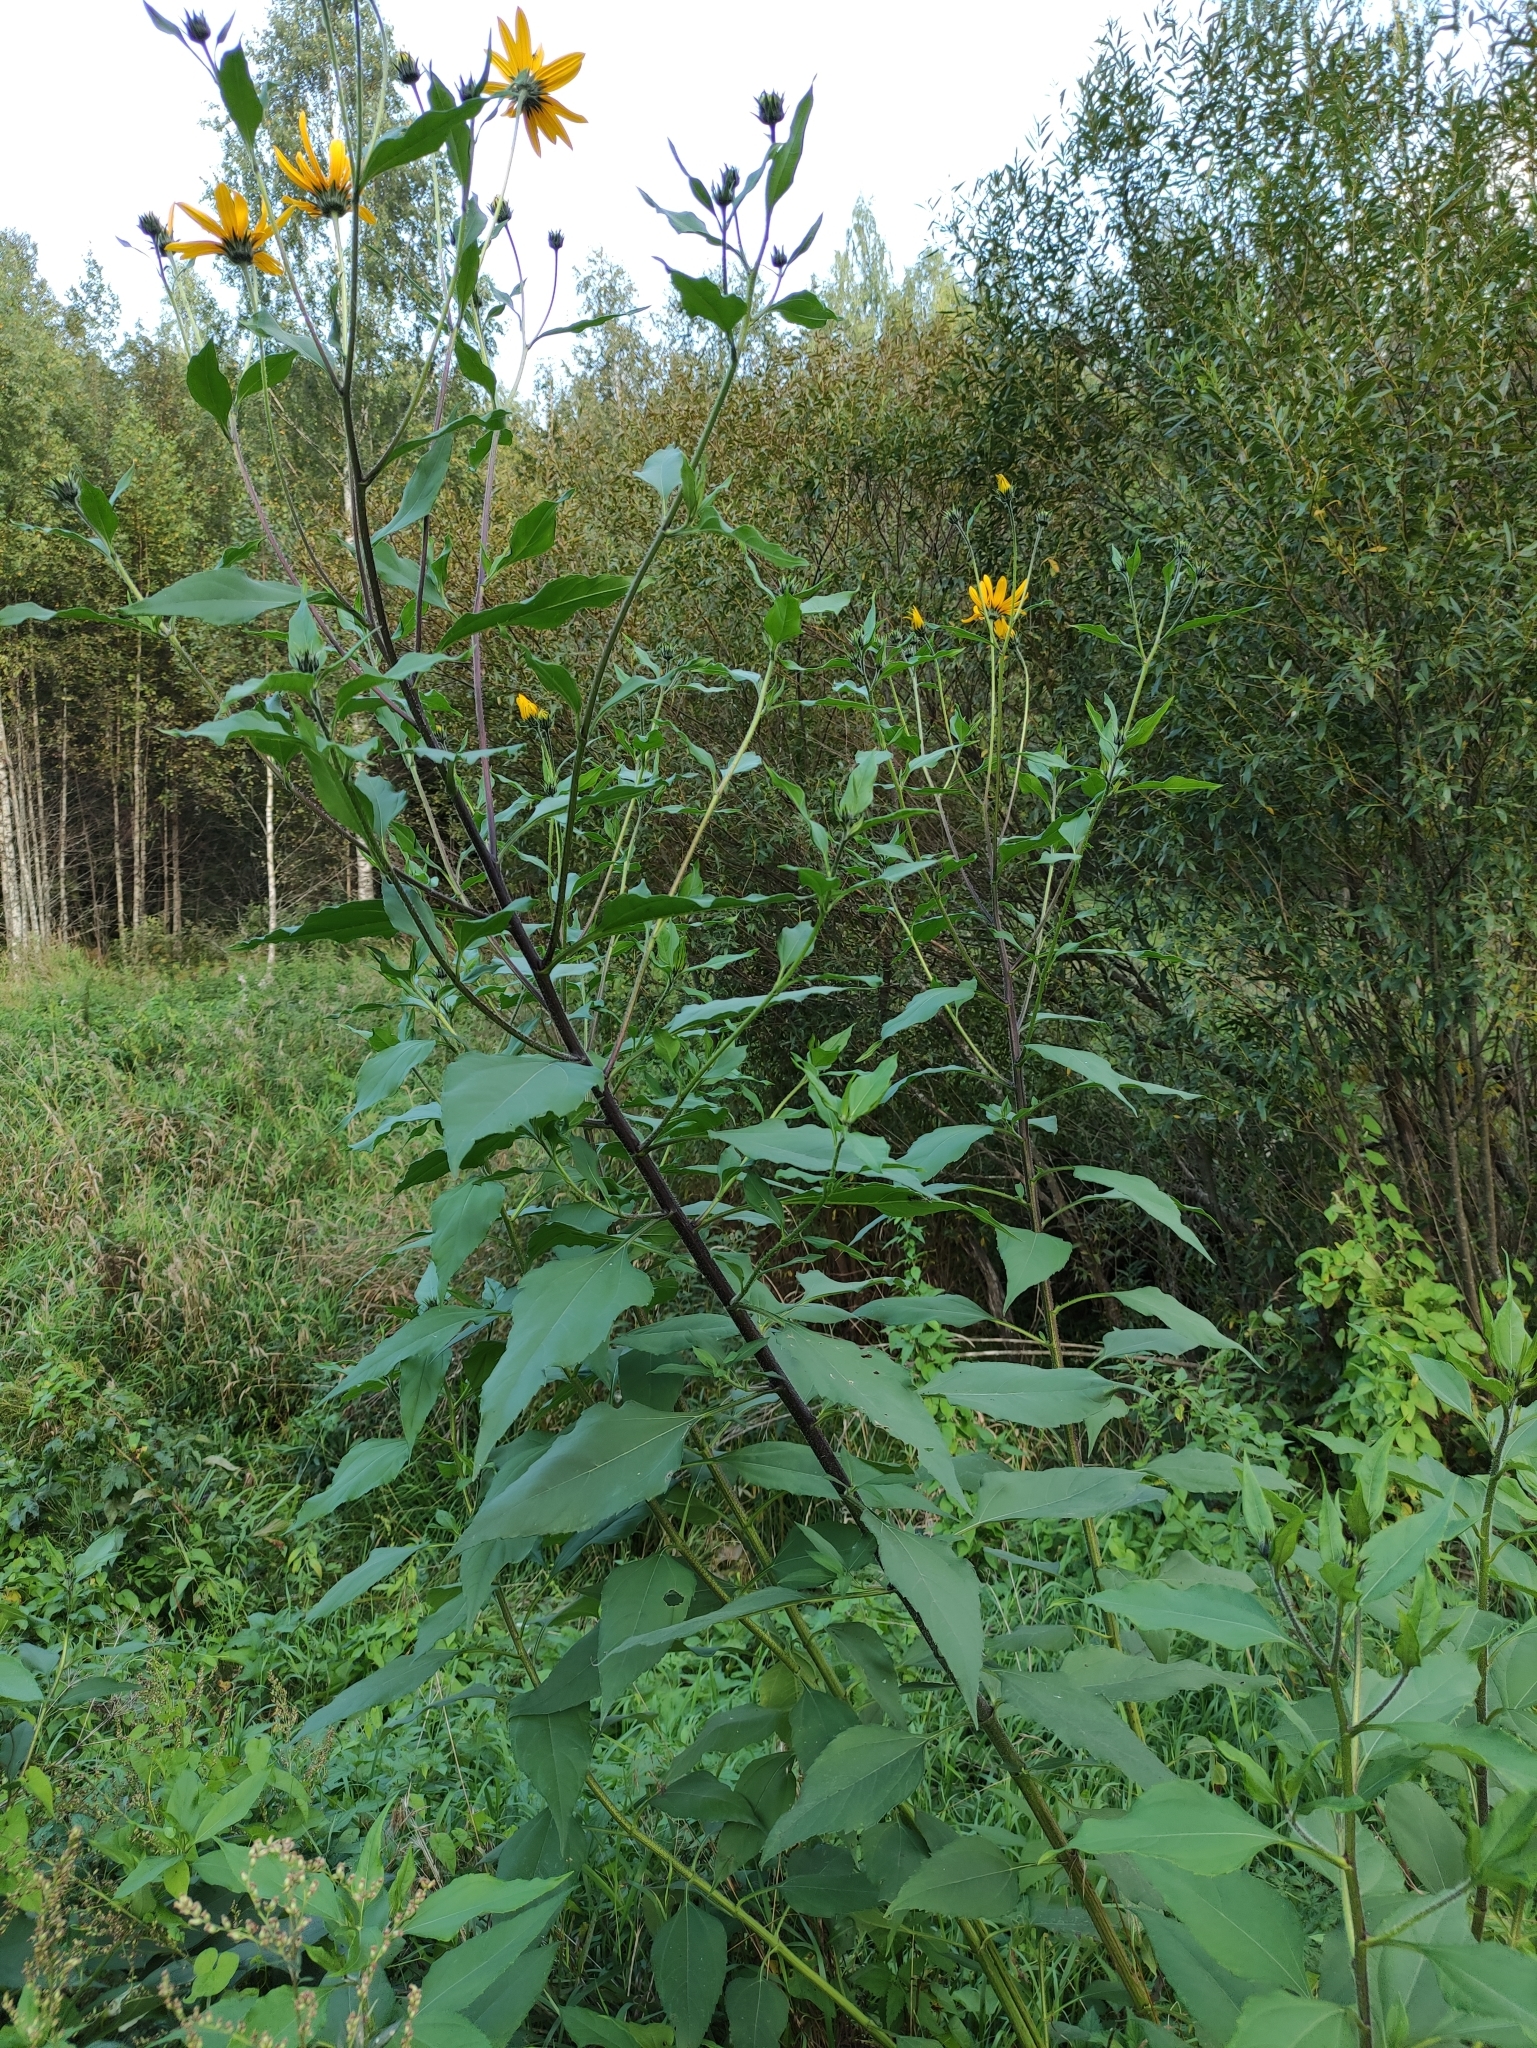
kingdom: Plantae
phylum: Tracheophyta
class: Magnoliopsida
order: Asterales
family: Asteraceae
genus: Helianthus
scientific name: Helianthus tuberosus
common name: Jerusalem artichoke
